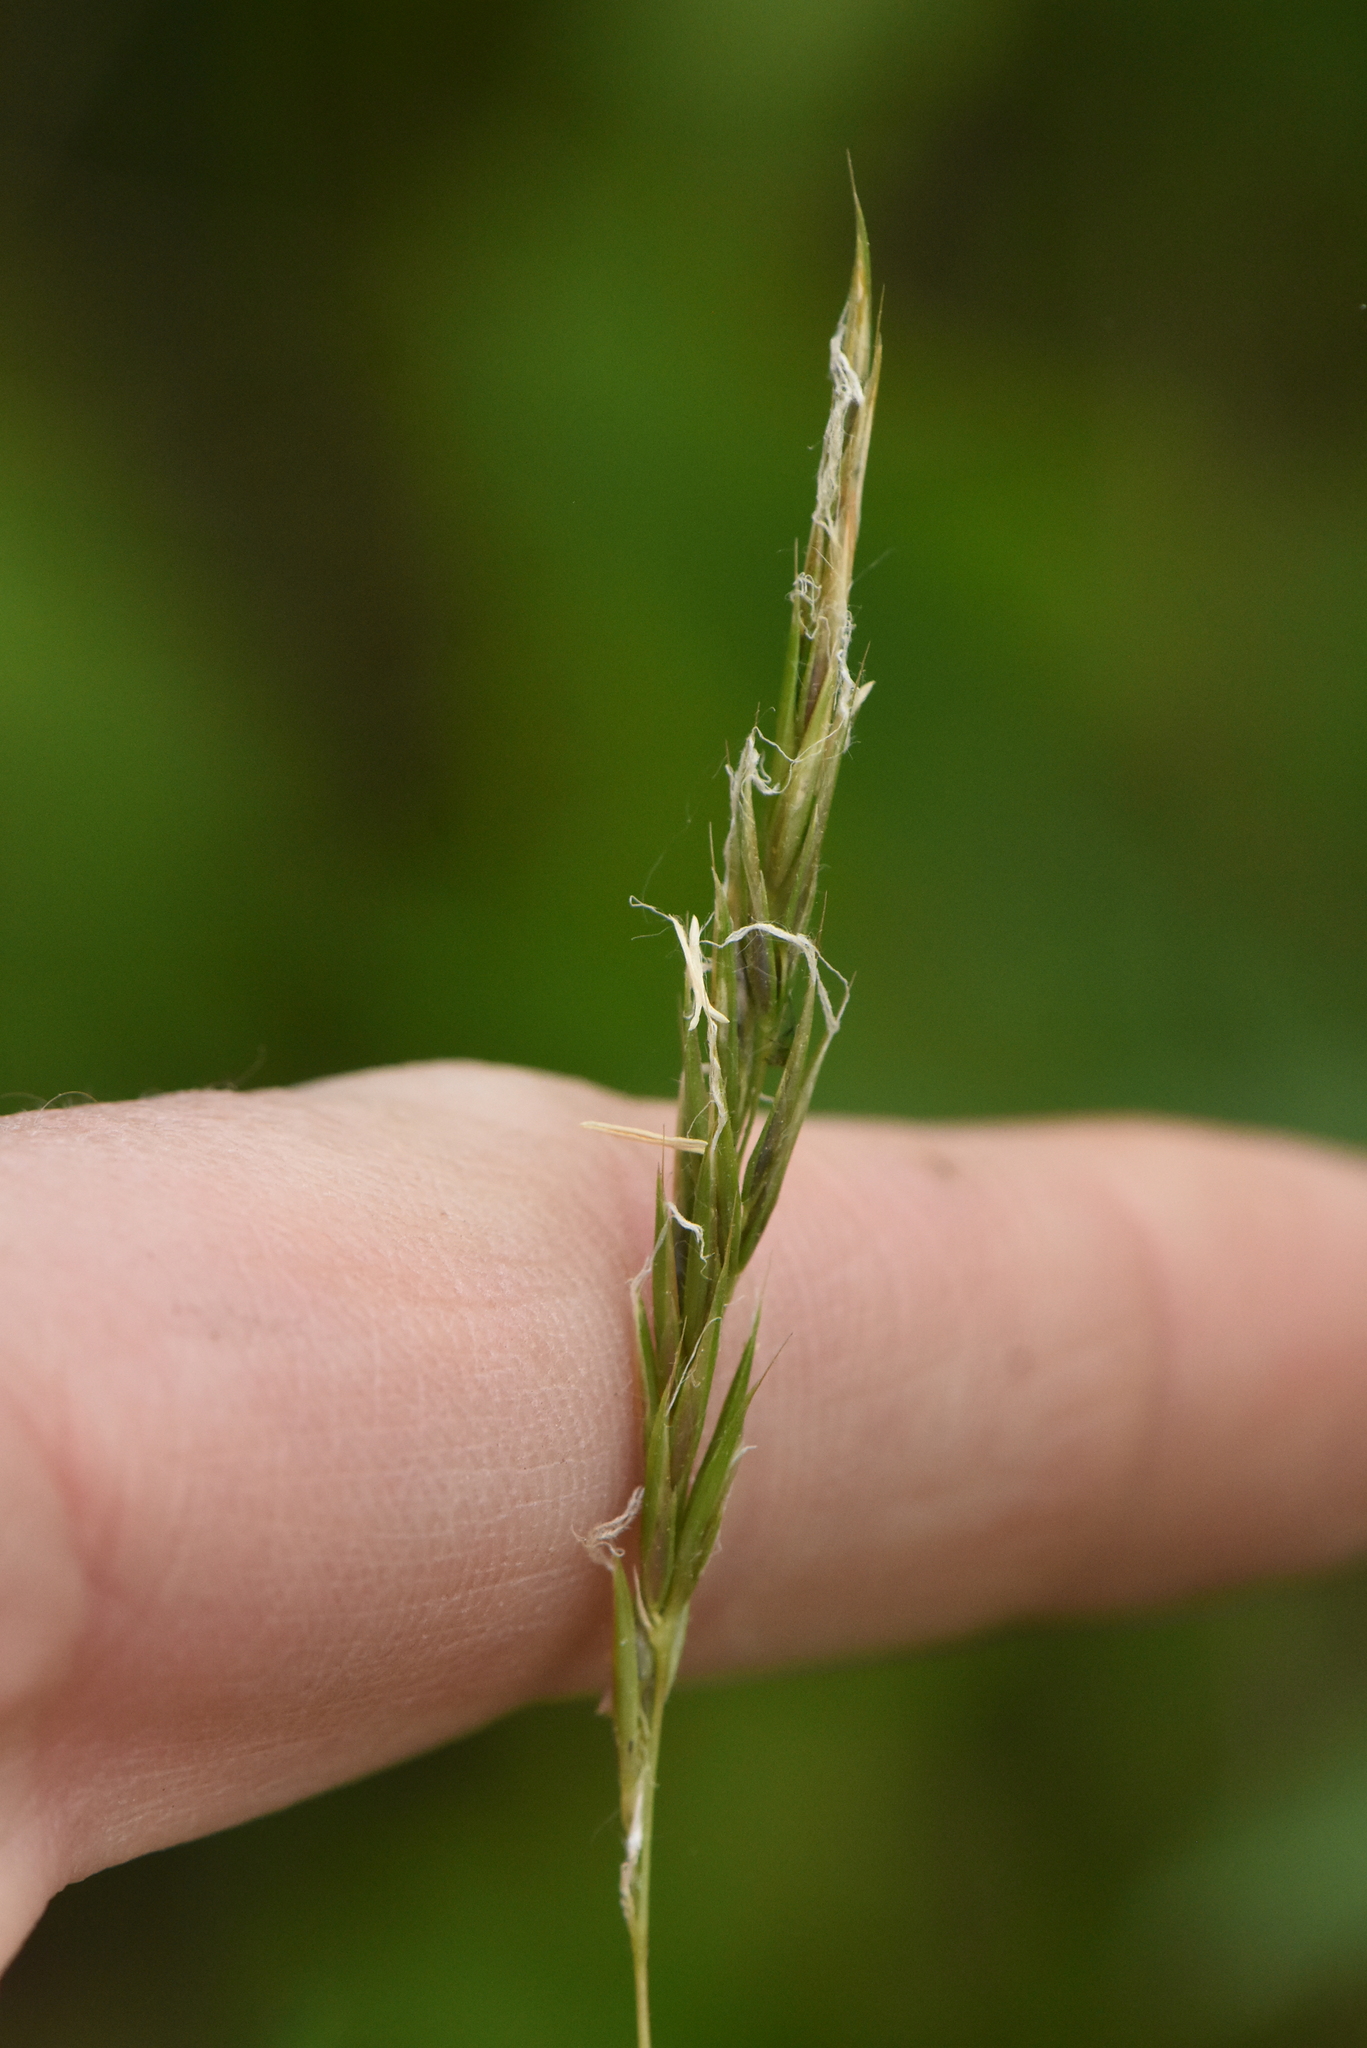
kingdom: Plantae
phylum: Tracheophyta
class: Liliopsida
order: Poales
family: Poaceae
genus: Anthoxanthum
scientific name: Anthoxanthum odoratum
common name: Sweet vernalgrass
